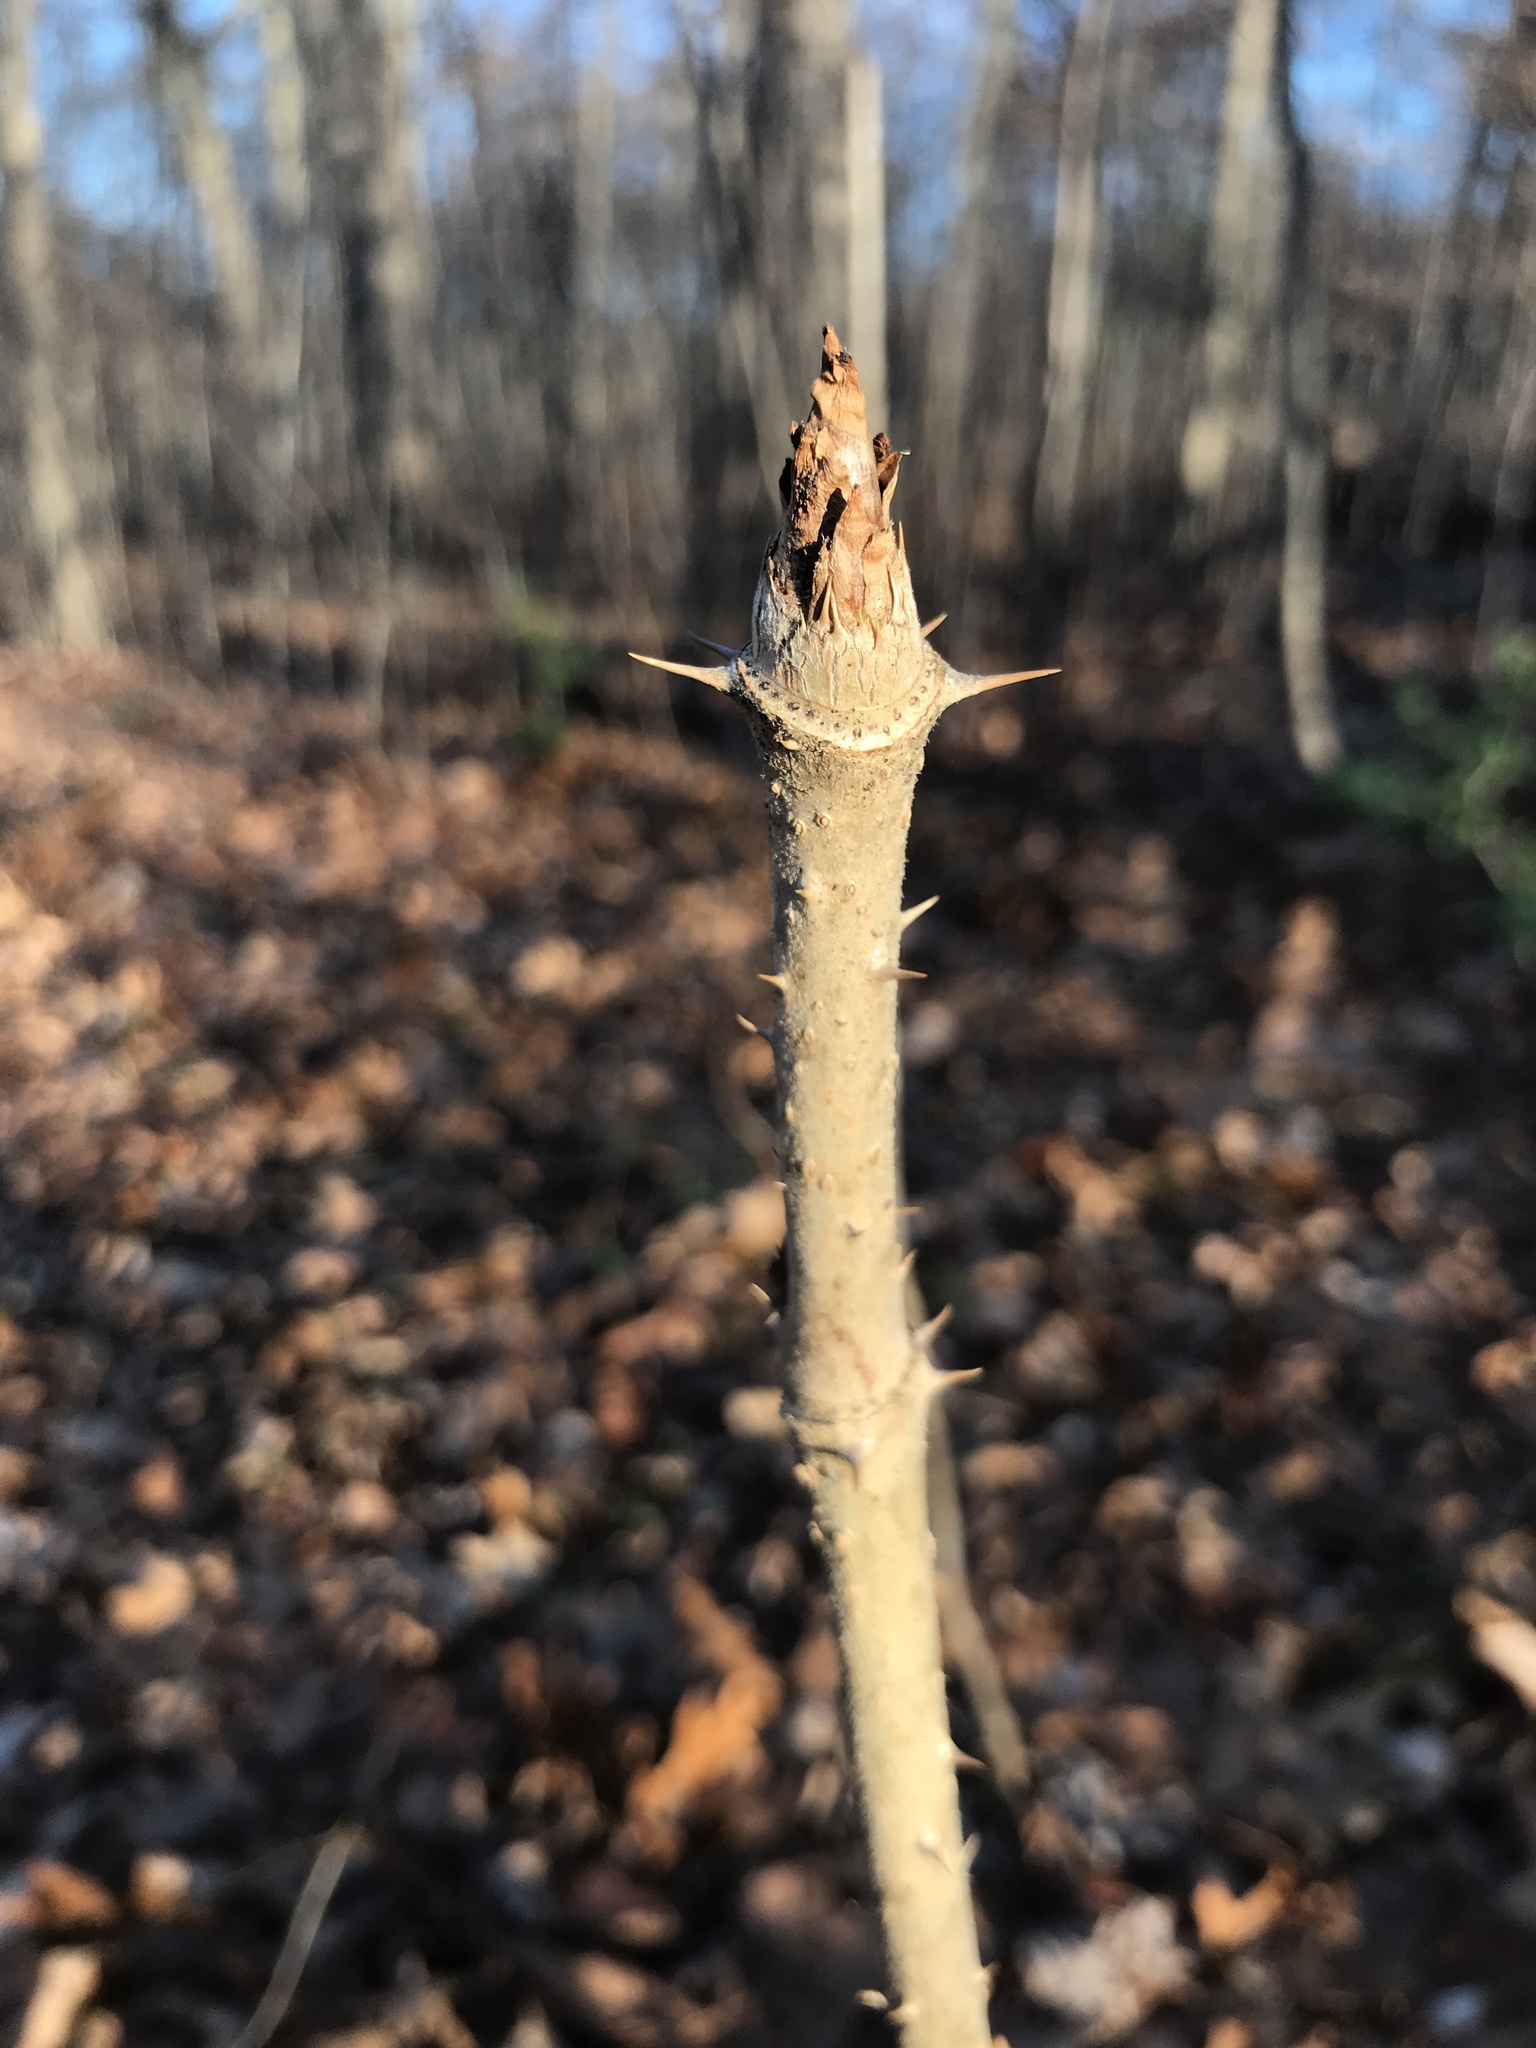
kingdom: Plantae
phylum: Tracheophyta
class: Magnoliopsida
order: Apiales
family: Araliaceae
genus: Aralia
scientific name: Aralia elata
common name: Japanese angelica-tree
